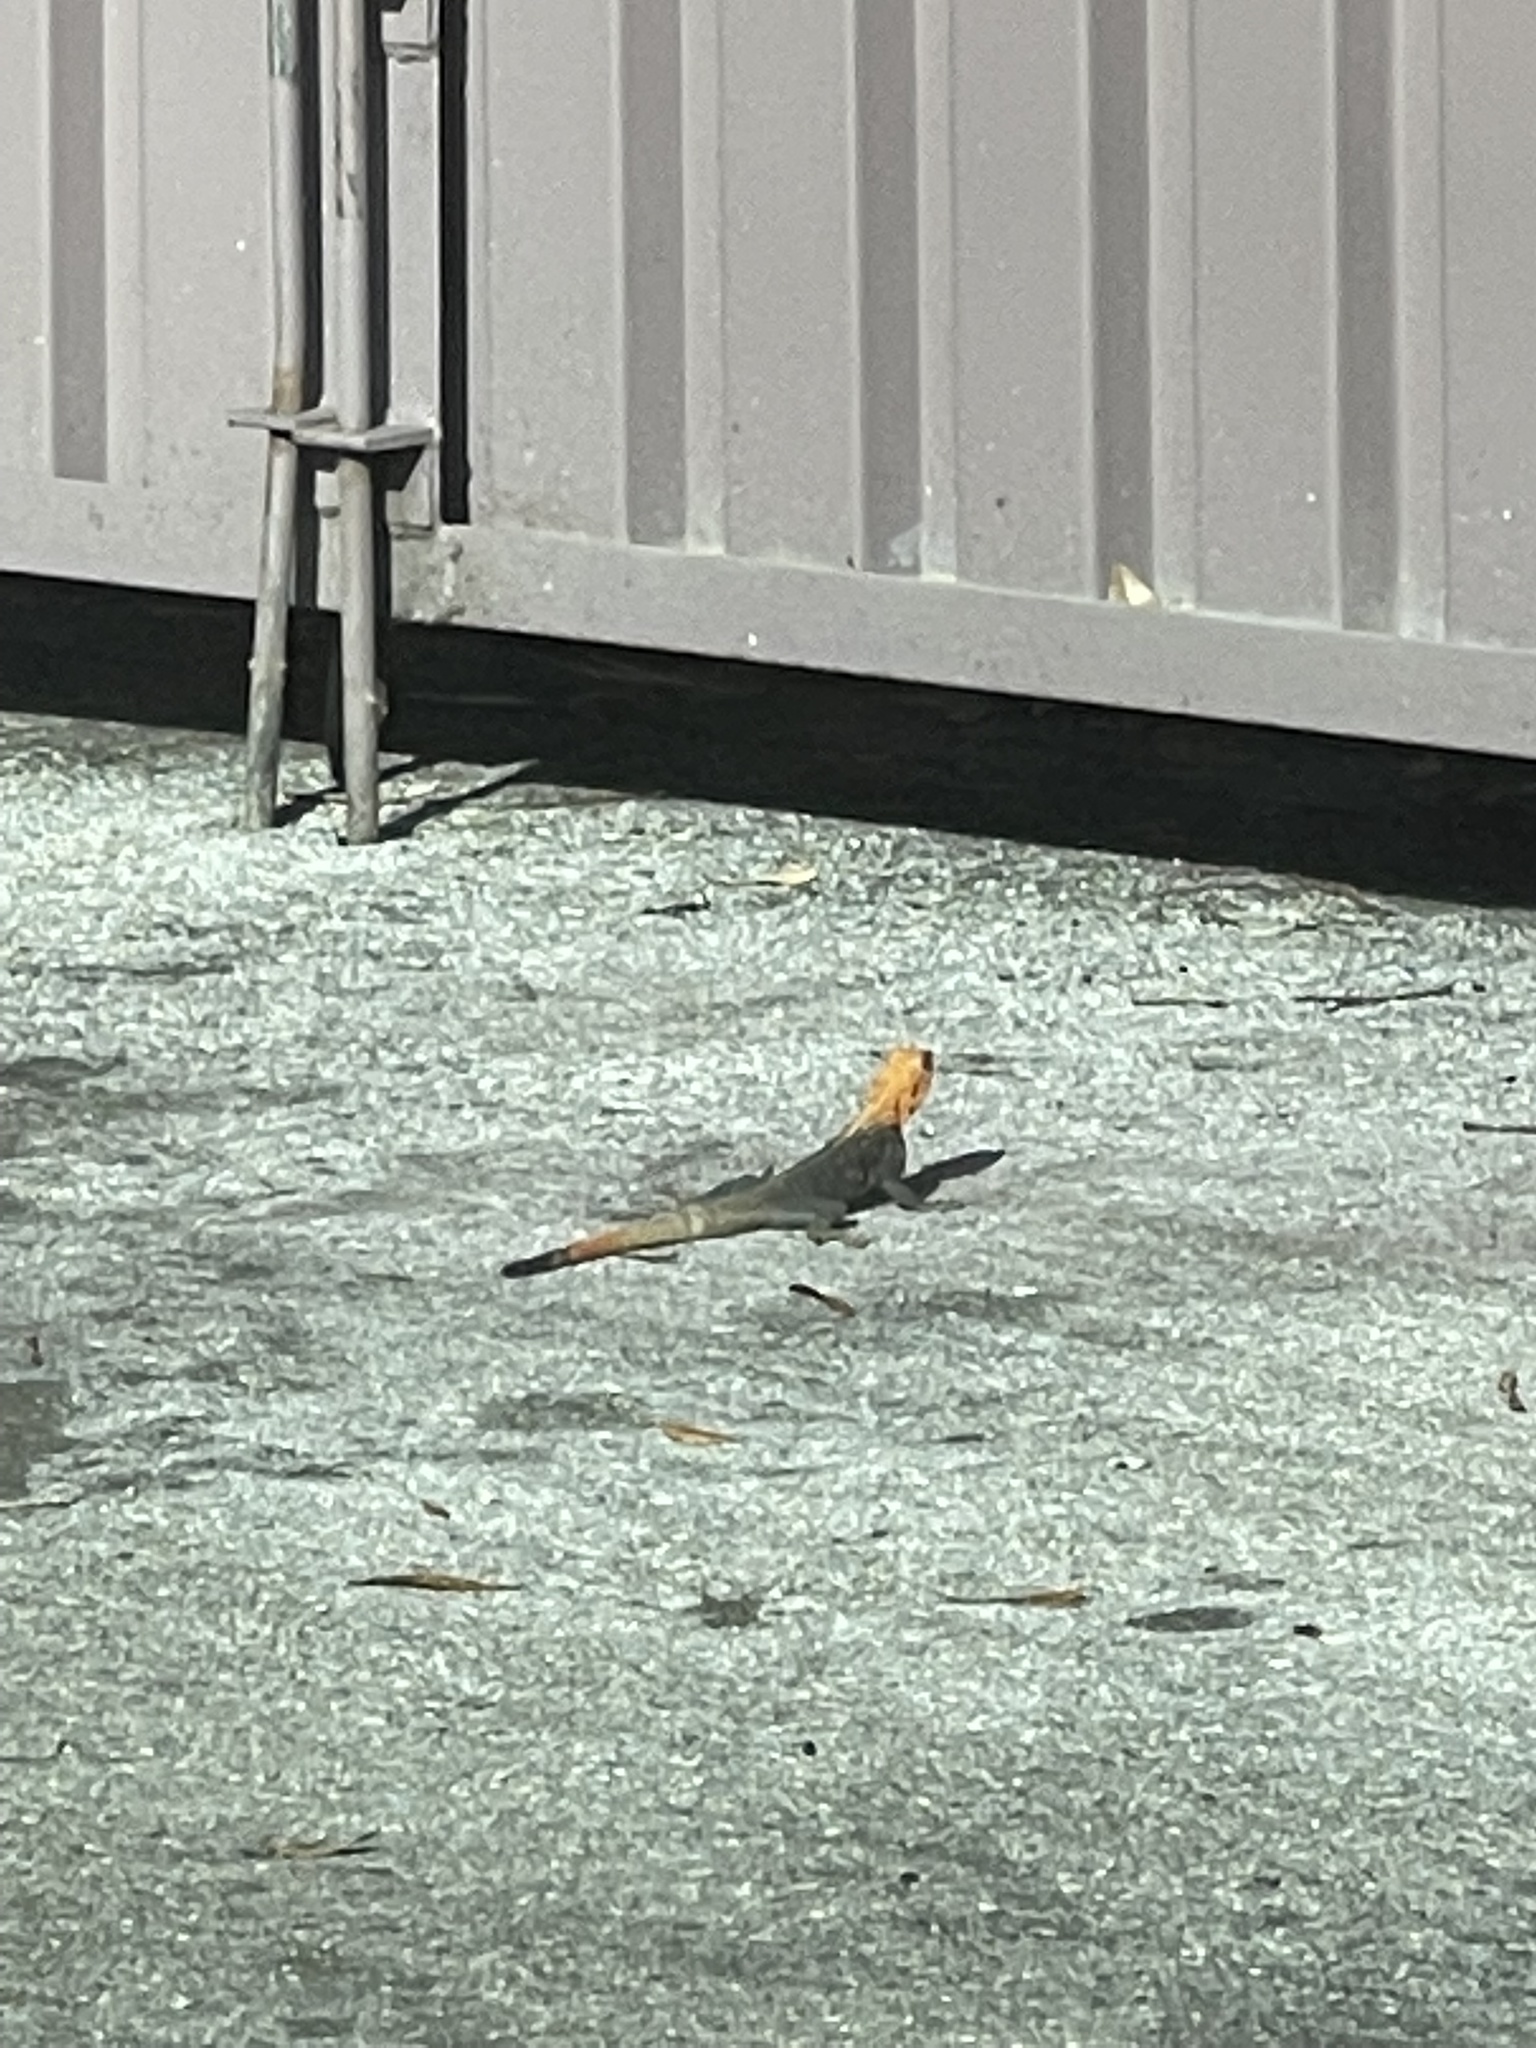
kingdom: Animalia
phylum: Chordata
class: Squamata
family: Agamidae
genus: Agama
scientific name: Agama picticauda
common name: Red-headed agama
